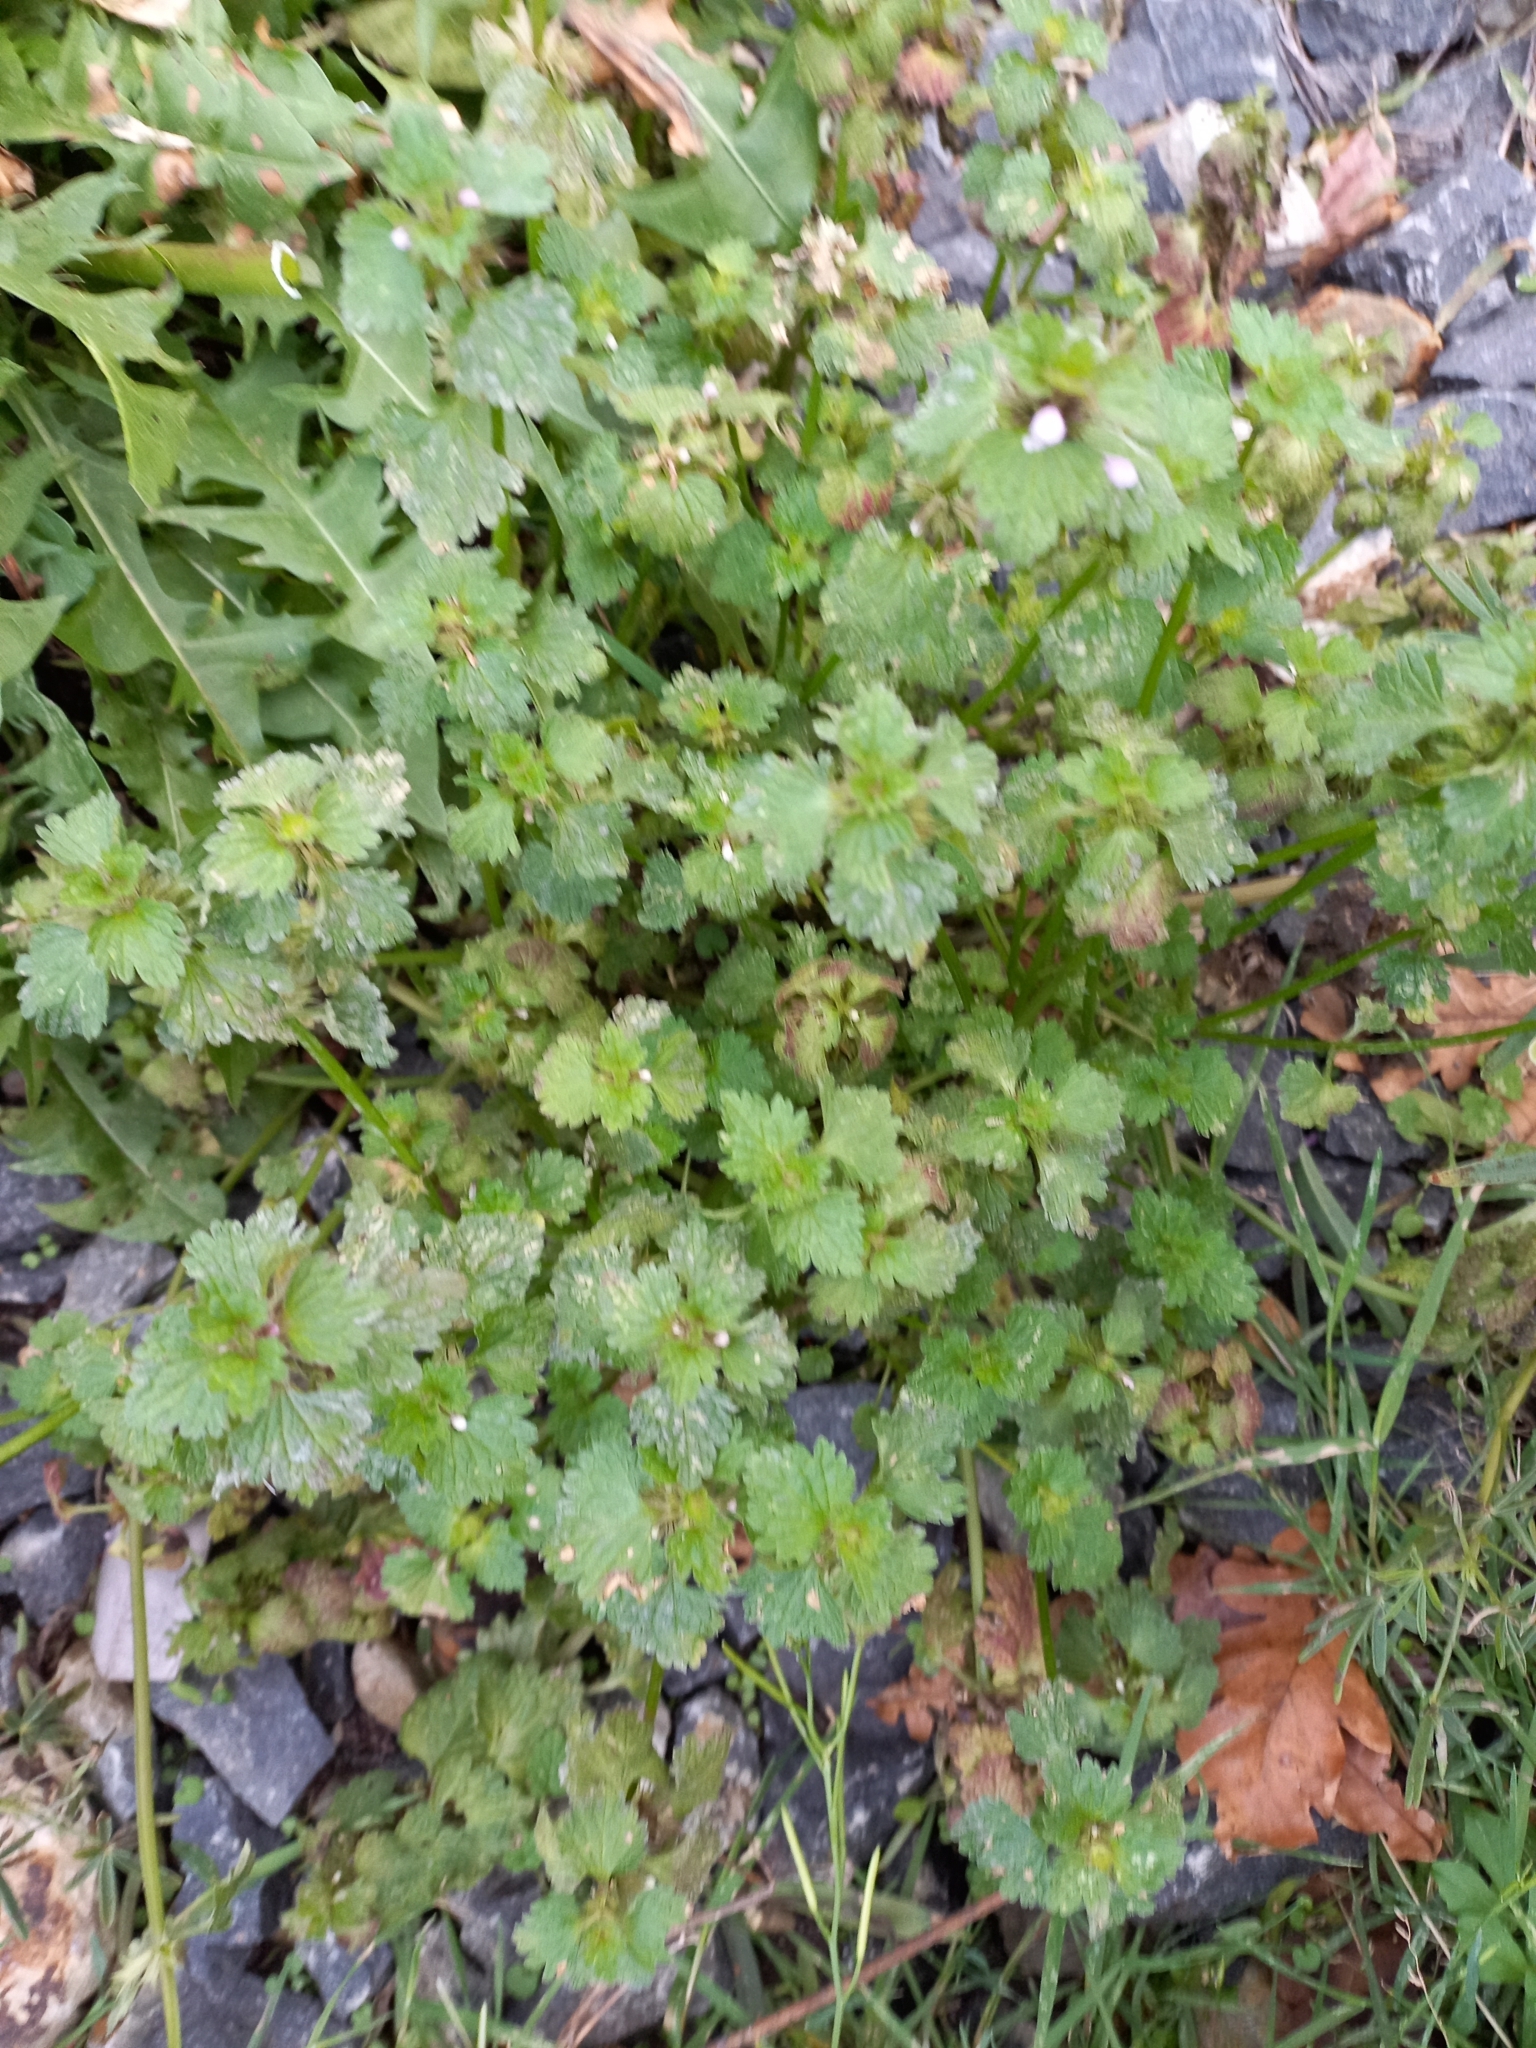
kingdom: Plantae
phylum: Tracheophyta
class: Magnoliopsida
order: Lamiales
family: Lamiaceae
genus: Lamium
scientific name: Lamium purpureum
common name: Red dead-nettle
